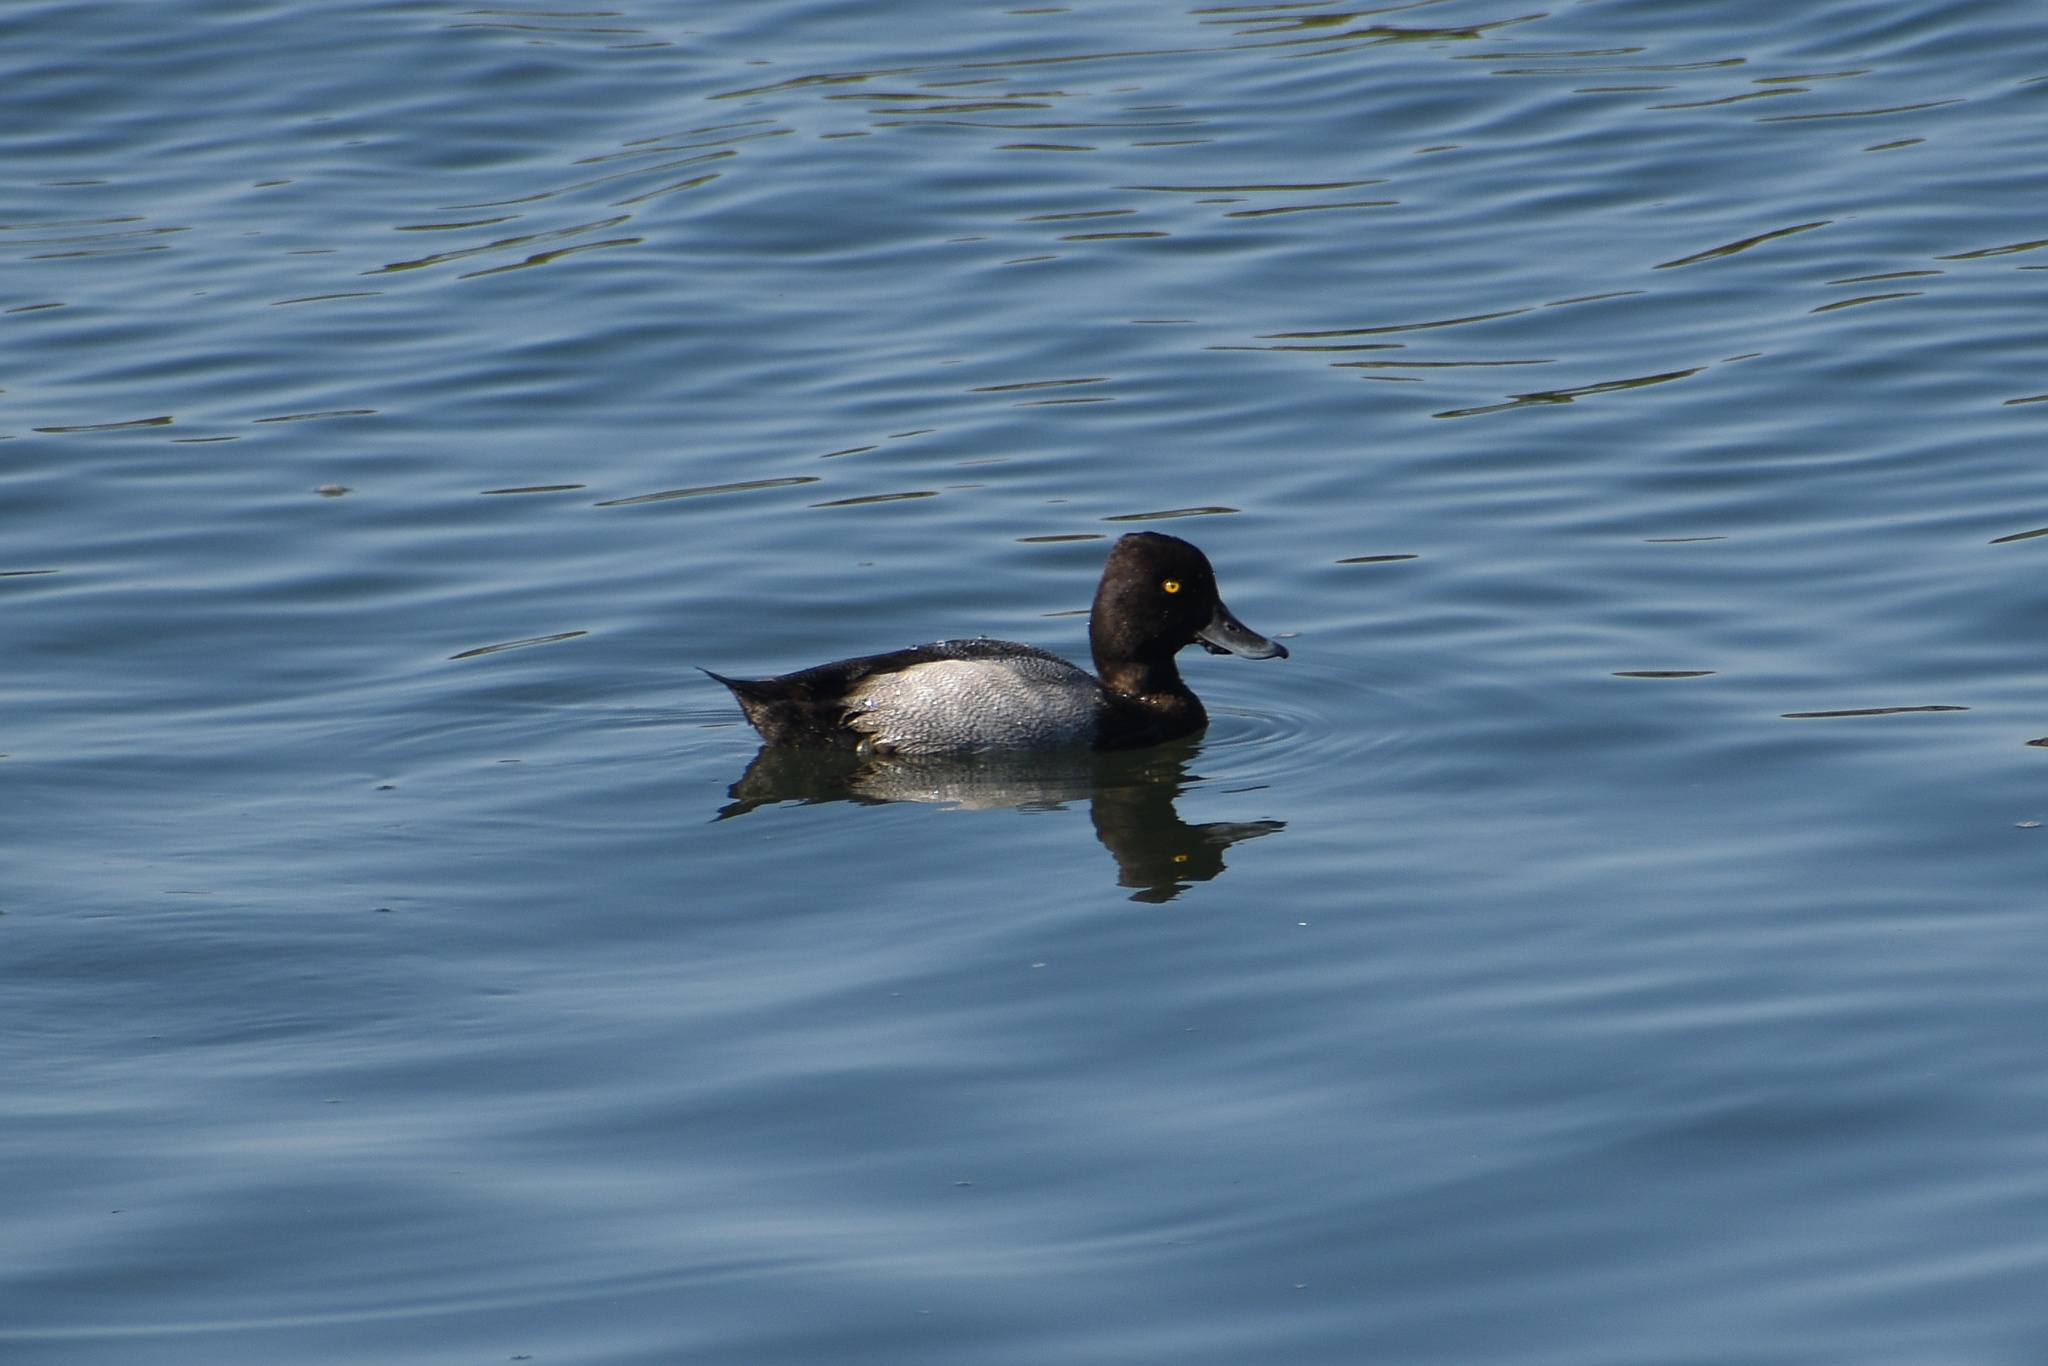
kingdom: Animalia
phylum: Chordata
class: Aves
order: Anseriformes
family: Anatidae
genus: Aythya
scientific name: Aythya affinis
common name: Lesser scaup
